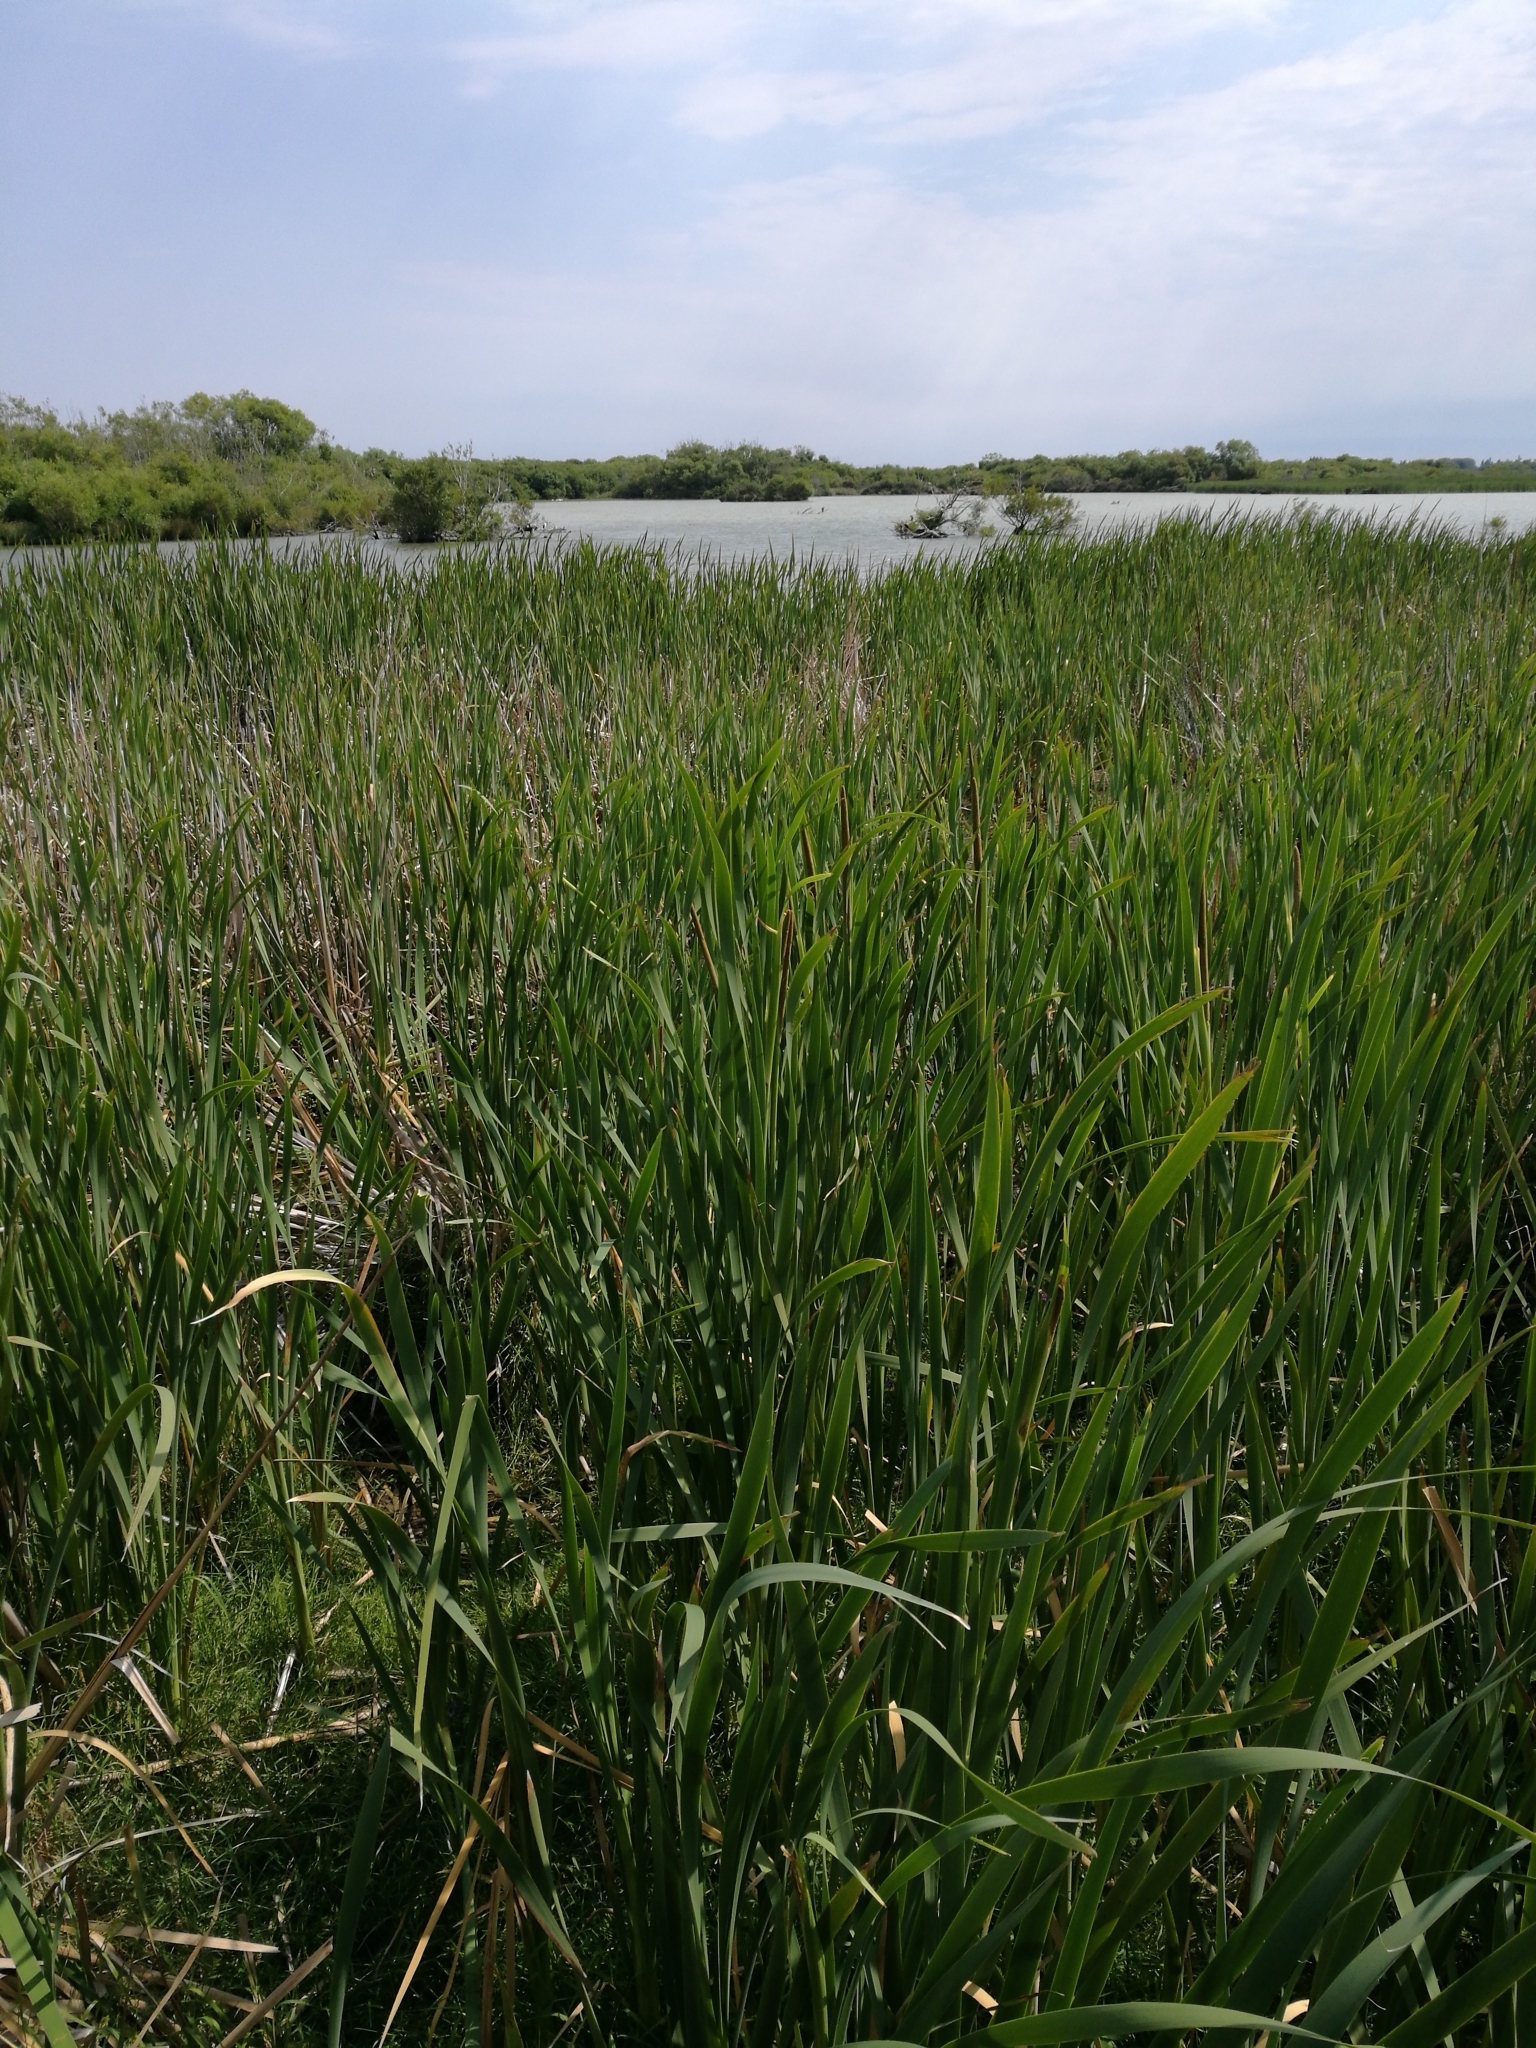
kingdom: Plantae
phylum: Tracheophyta
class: Liliopsida
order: Poales
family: Typhaceae
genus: Typha
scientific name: Typha orientalis
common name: Bullrush
